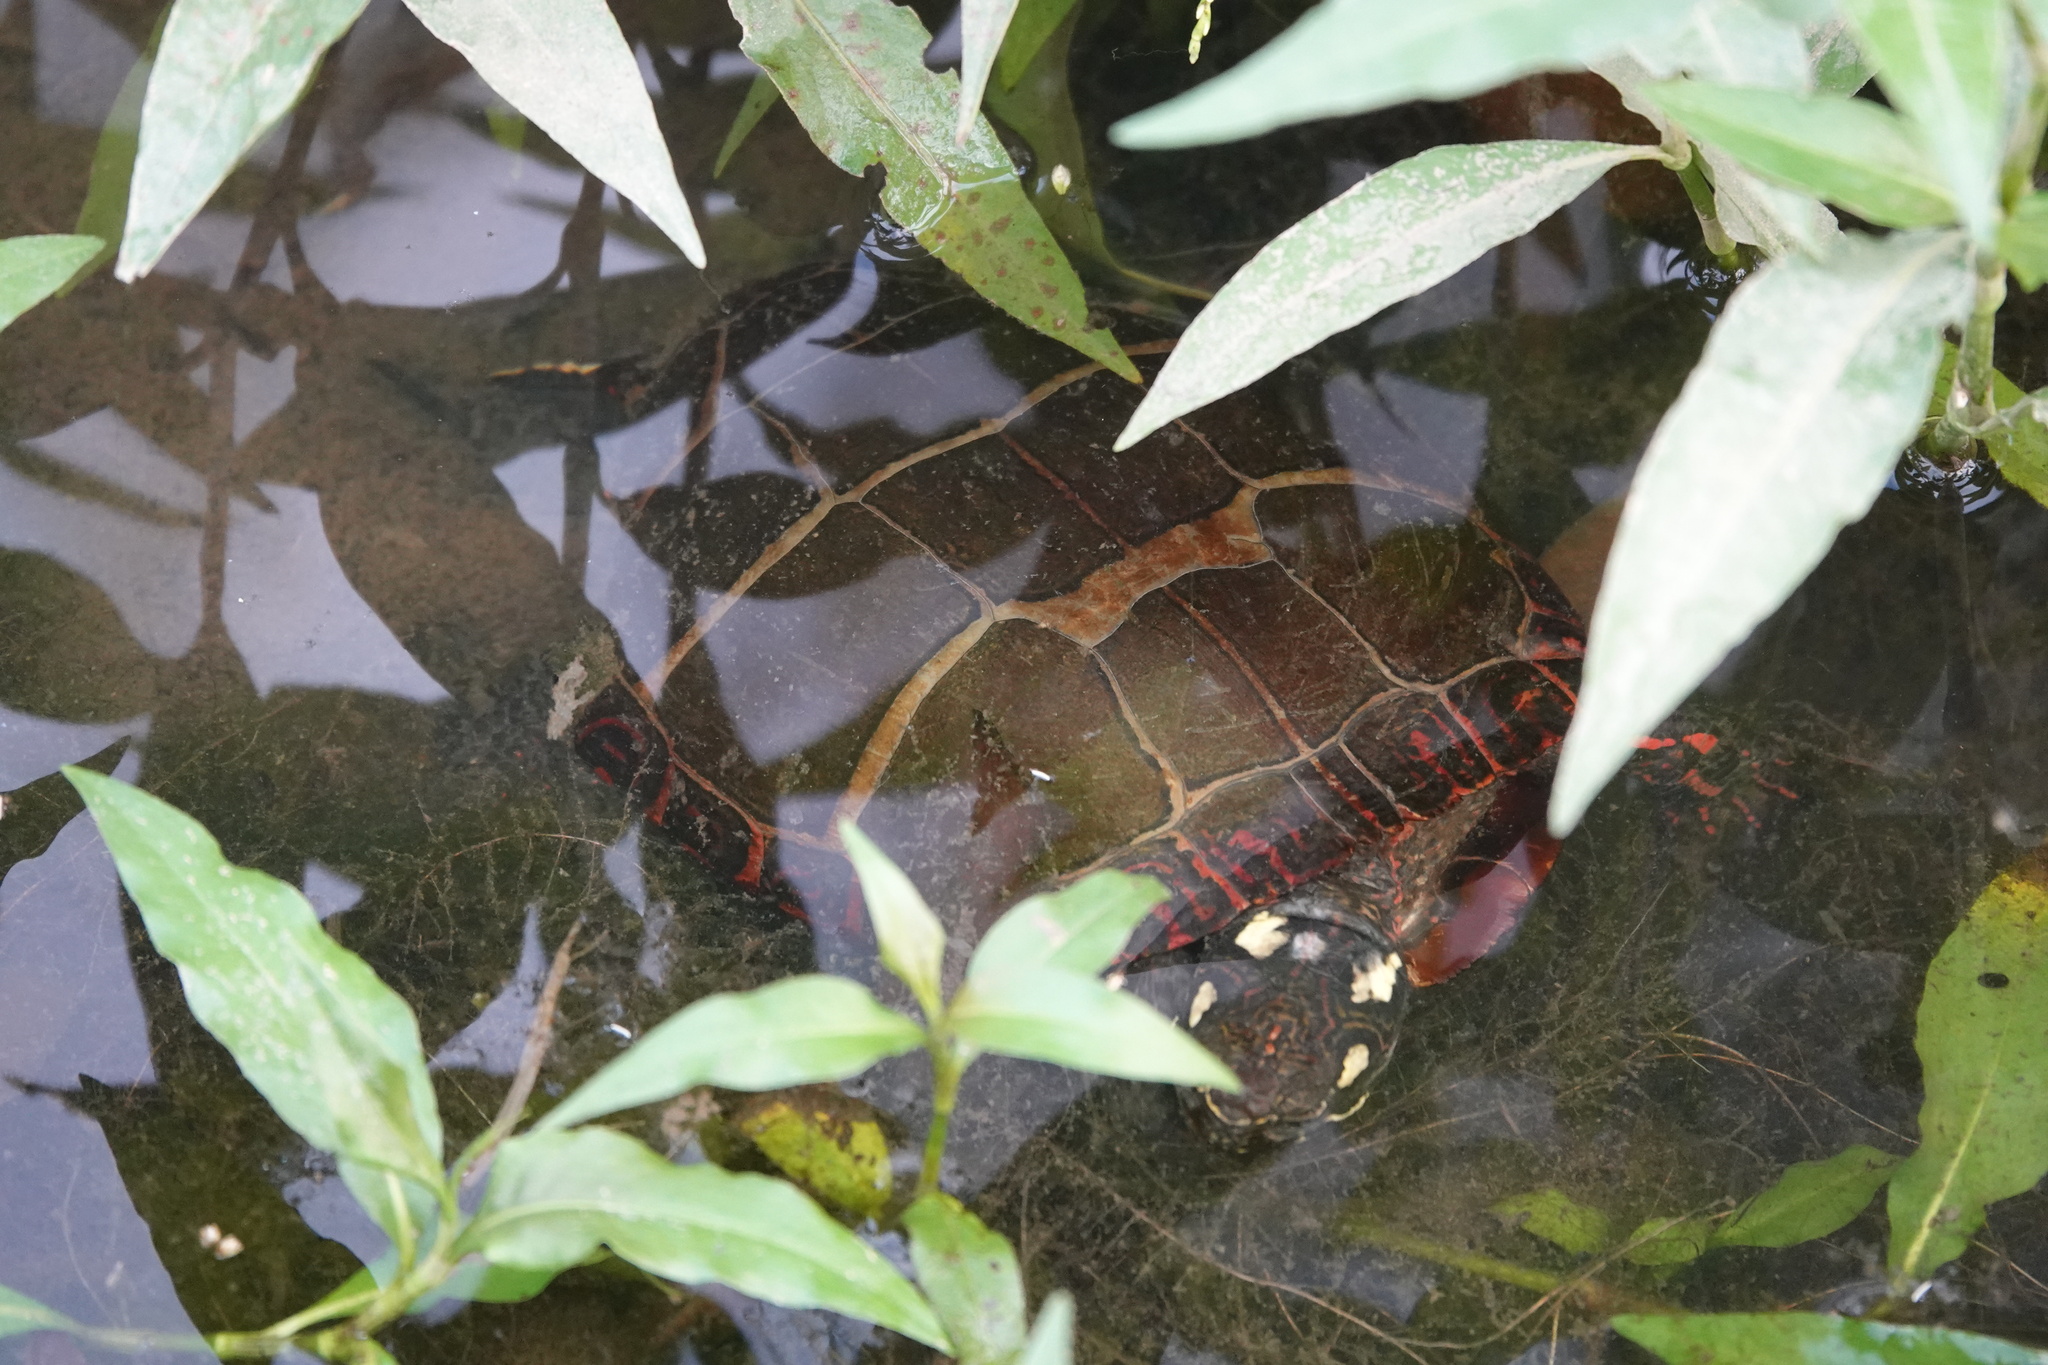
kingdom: Animalia
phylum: Chordata
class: Testudines
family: Emydidae
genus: Chrysemys
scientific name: Chrysemys picta
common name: Painted turtle
